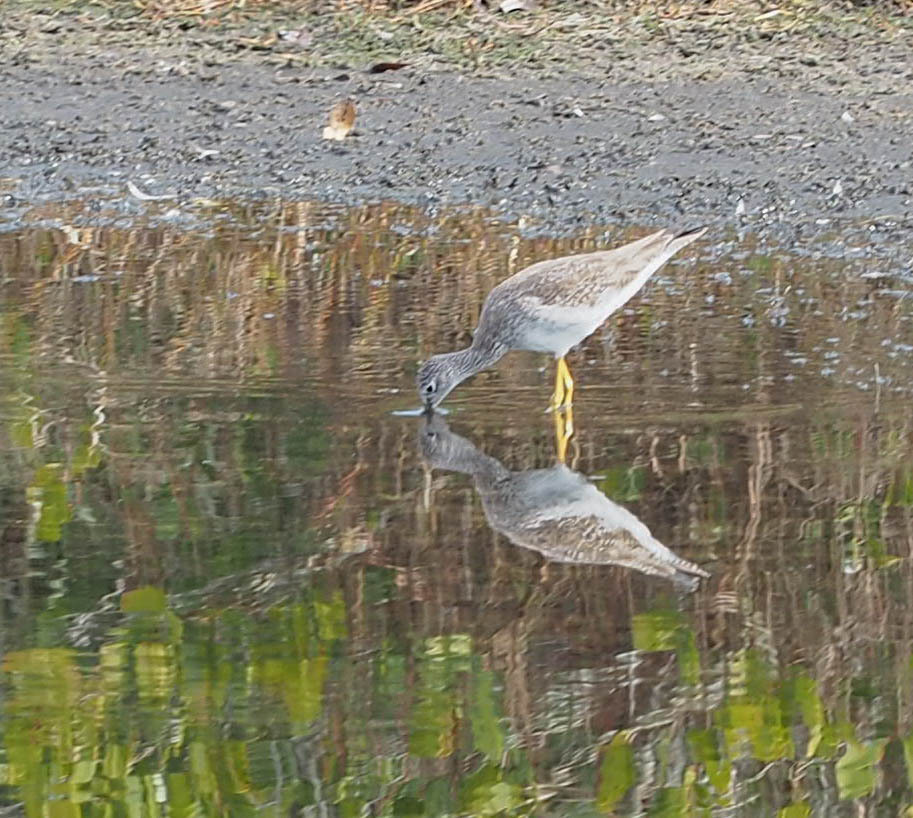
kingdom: Animalia
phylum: Chordata
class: Aves
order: Charadriiformes
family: Scolopacidae
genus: Tringa
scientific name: Tringa melanoleuca
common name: Greater yellowlegs
